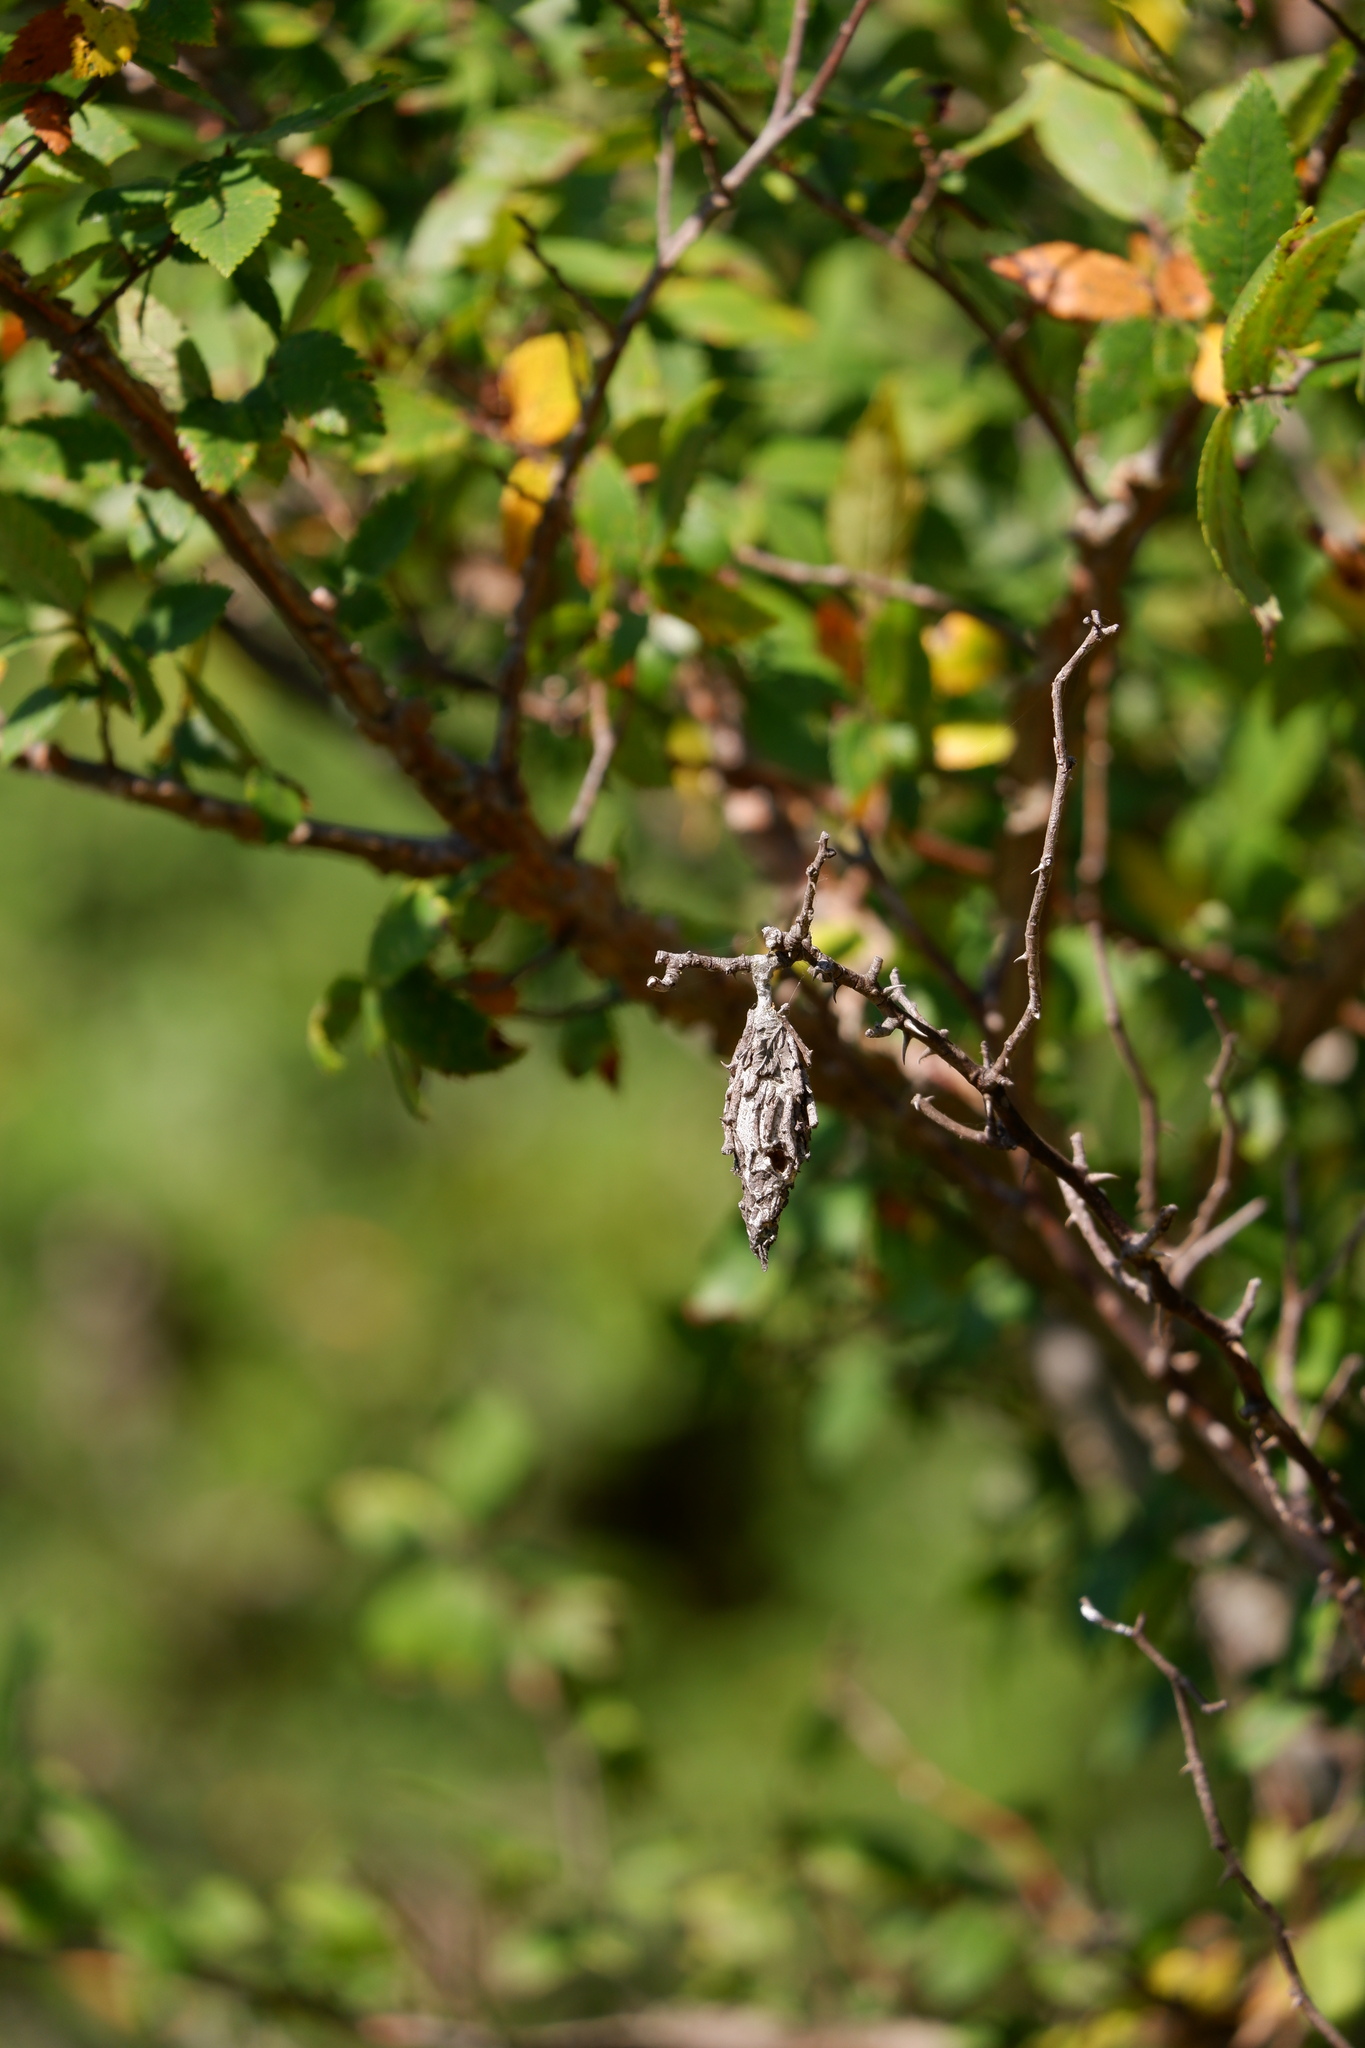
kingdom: Animalia
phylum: Arthropoda
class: Insecta
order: Lepidoptera
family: Psychidae
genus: Thyridopteryx
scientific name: Thyridopteryx ephemeraeformis
